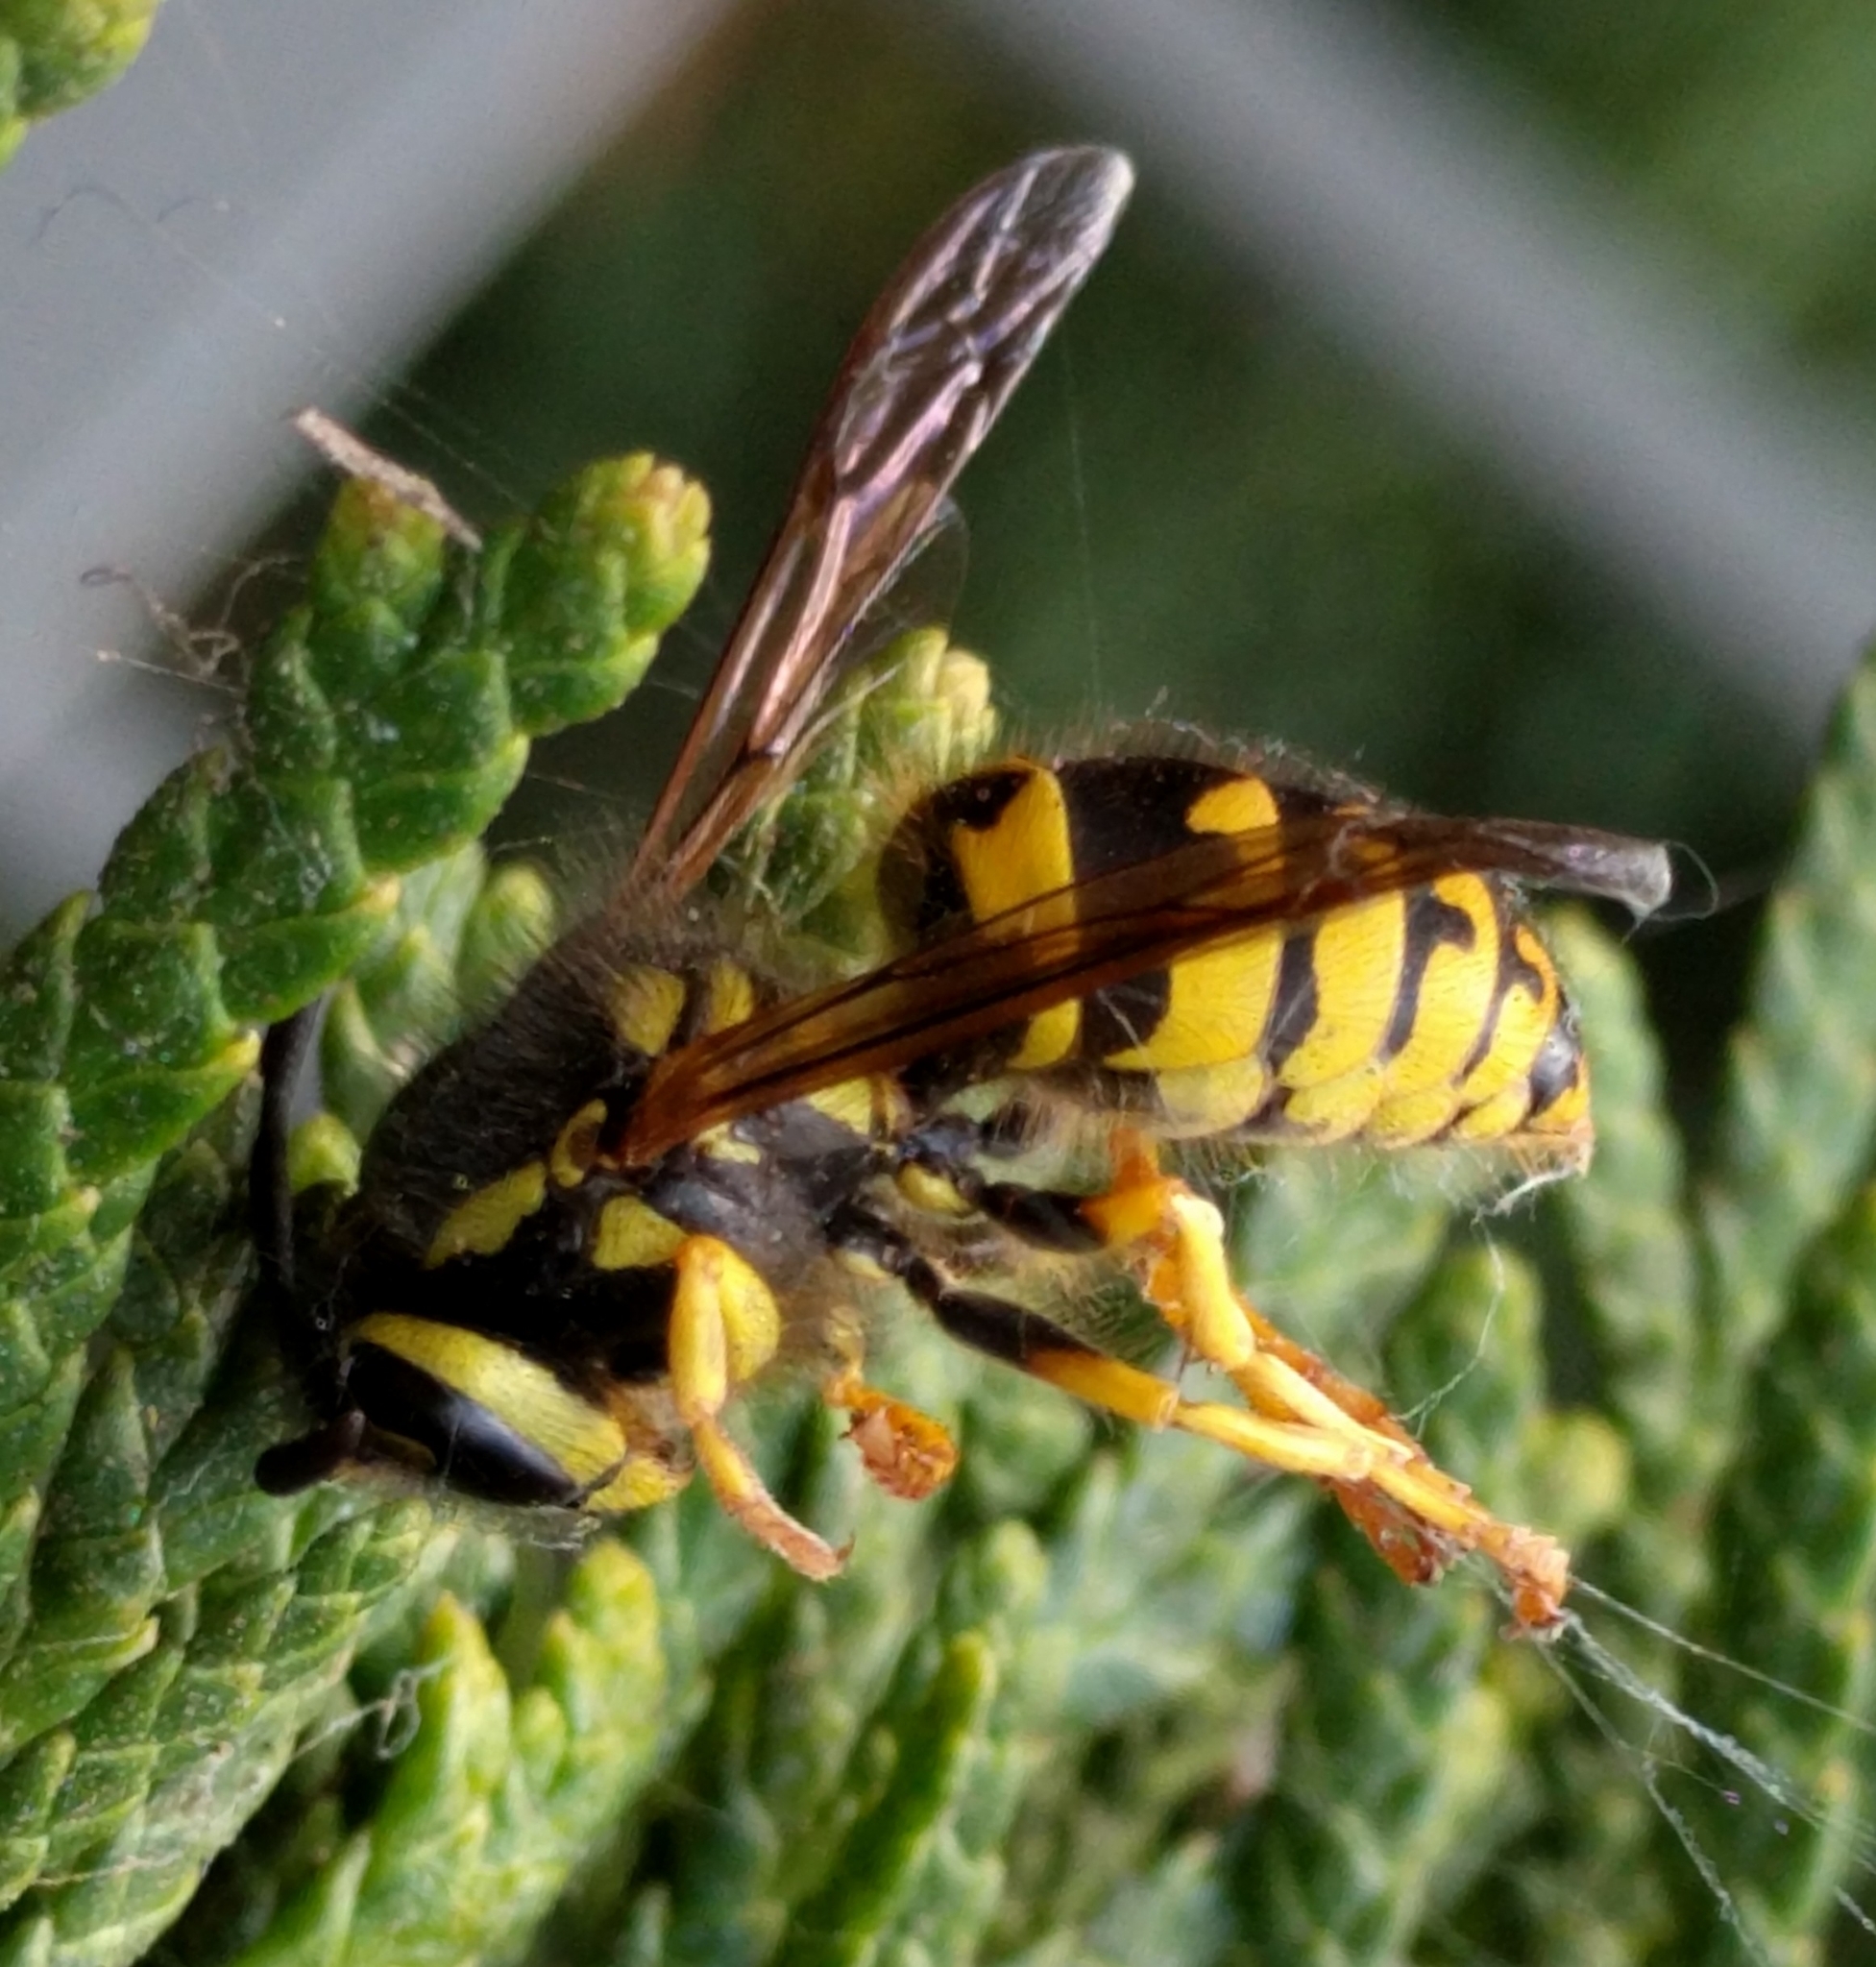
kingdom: Animalia
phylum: Arthropoda
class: Insecta
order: Hymenoptera
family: Vespidae
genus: Vespula
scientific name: Vespula pensylvanica
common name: Western yellowjacket
